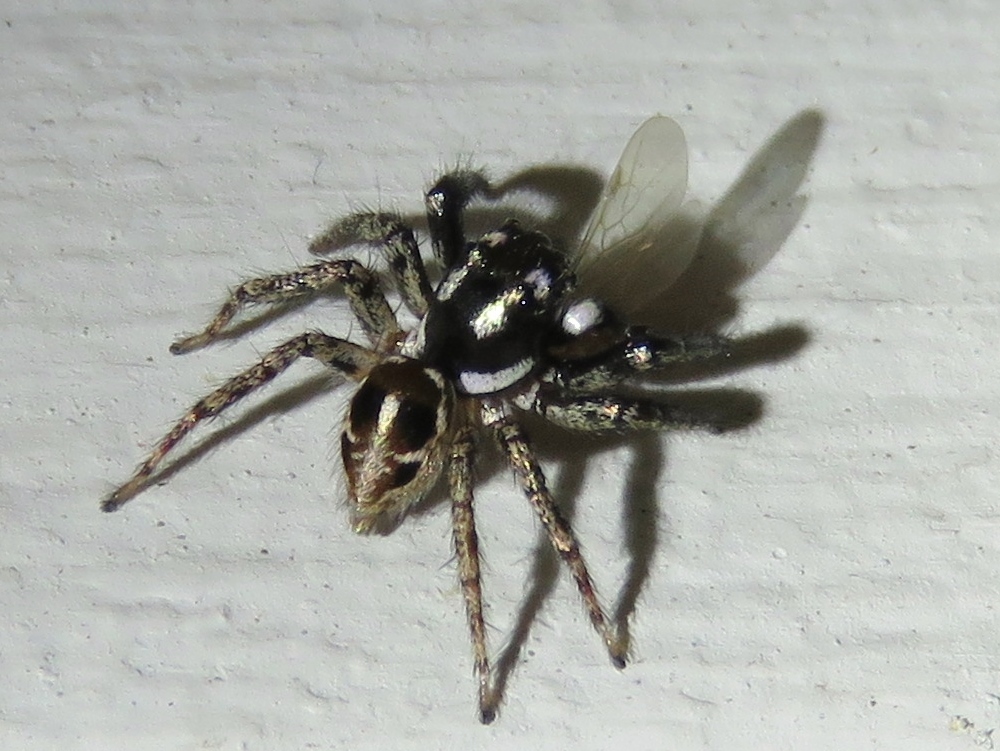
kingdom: Animalia
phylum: Arthropoda
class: Arachnida
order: Araneae
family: Salticidae
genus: Anasaitis
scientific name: Anasaitis canosa
